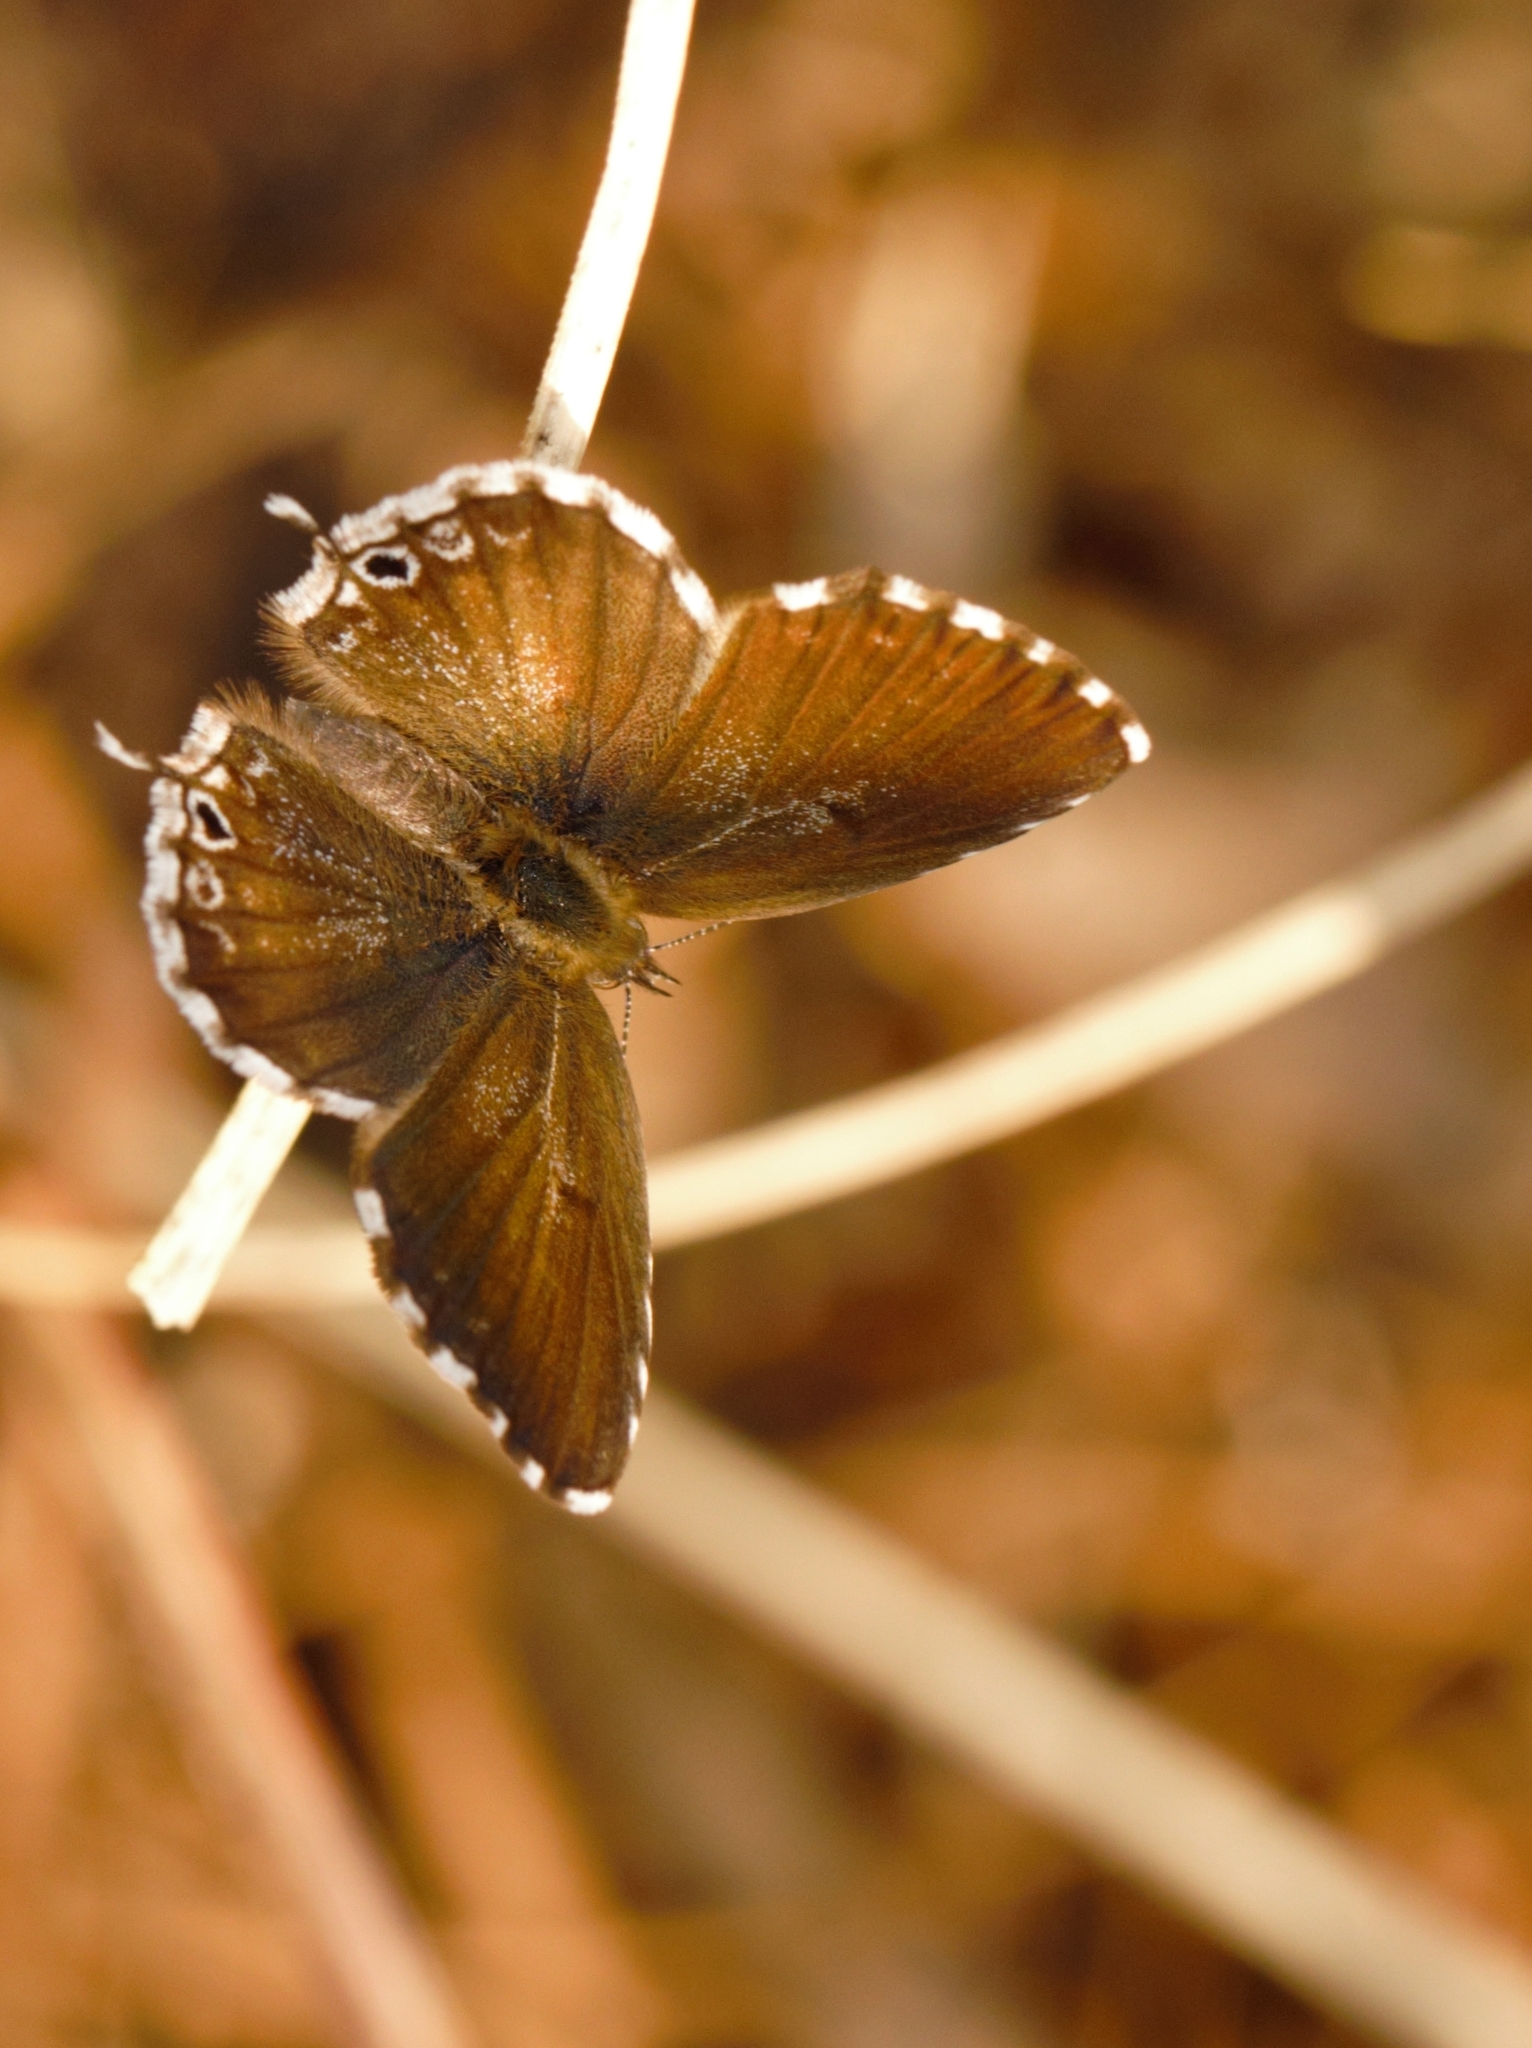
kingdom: Animalia
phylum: Arthropoda
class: Insecta
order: Lepidoptera
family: Lycaenidae
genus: Cacyreus
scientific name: Cacyreus marshalli
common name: Geranium bronze
